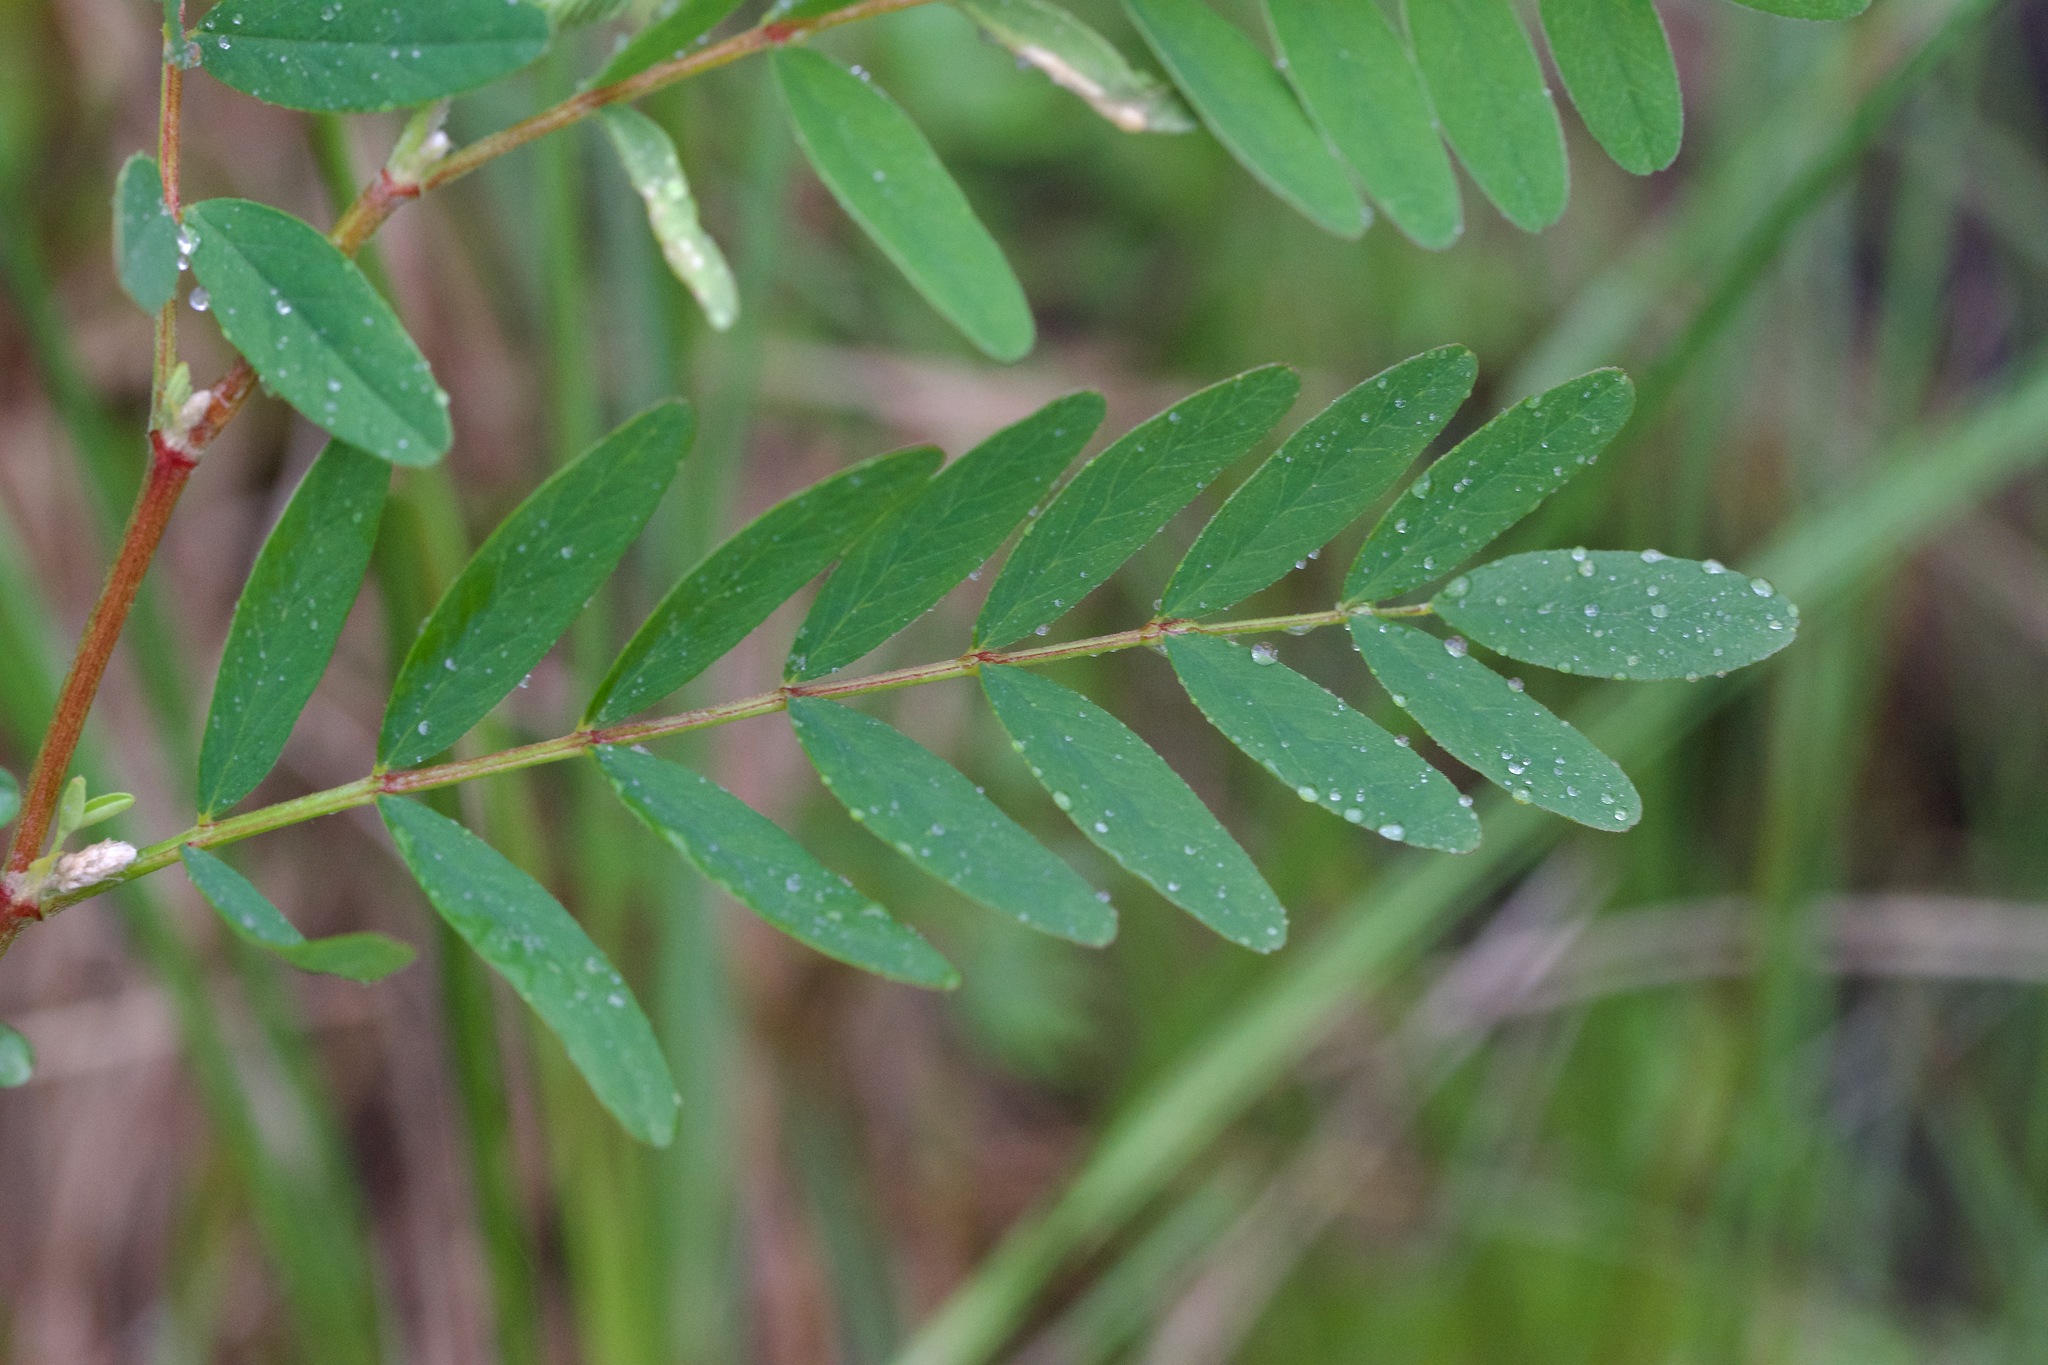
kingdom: Plantae
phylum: Tracheophyta
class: Magnoliopsida
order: Fabales
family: Fabaceae
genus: Astragalus
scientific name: Astragalus canadensis
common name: Canada milk-vetch
